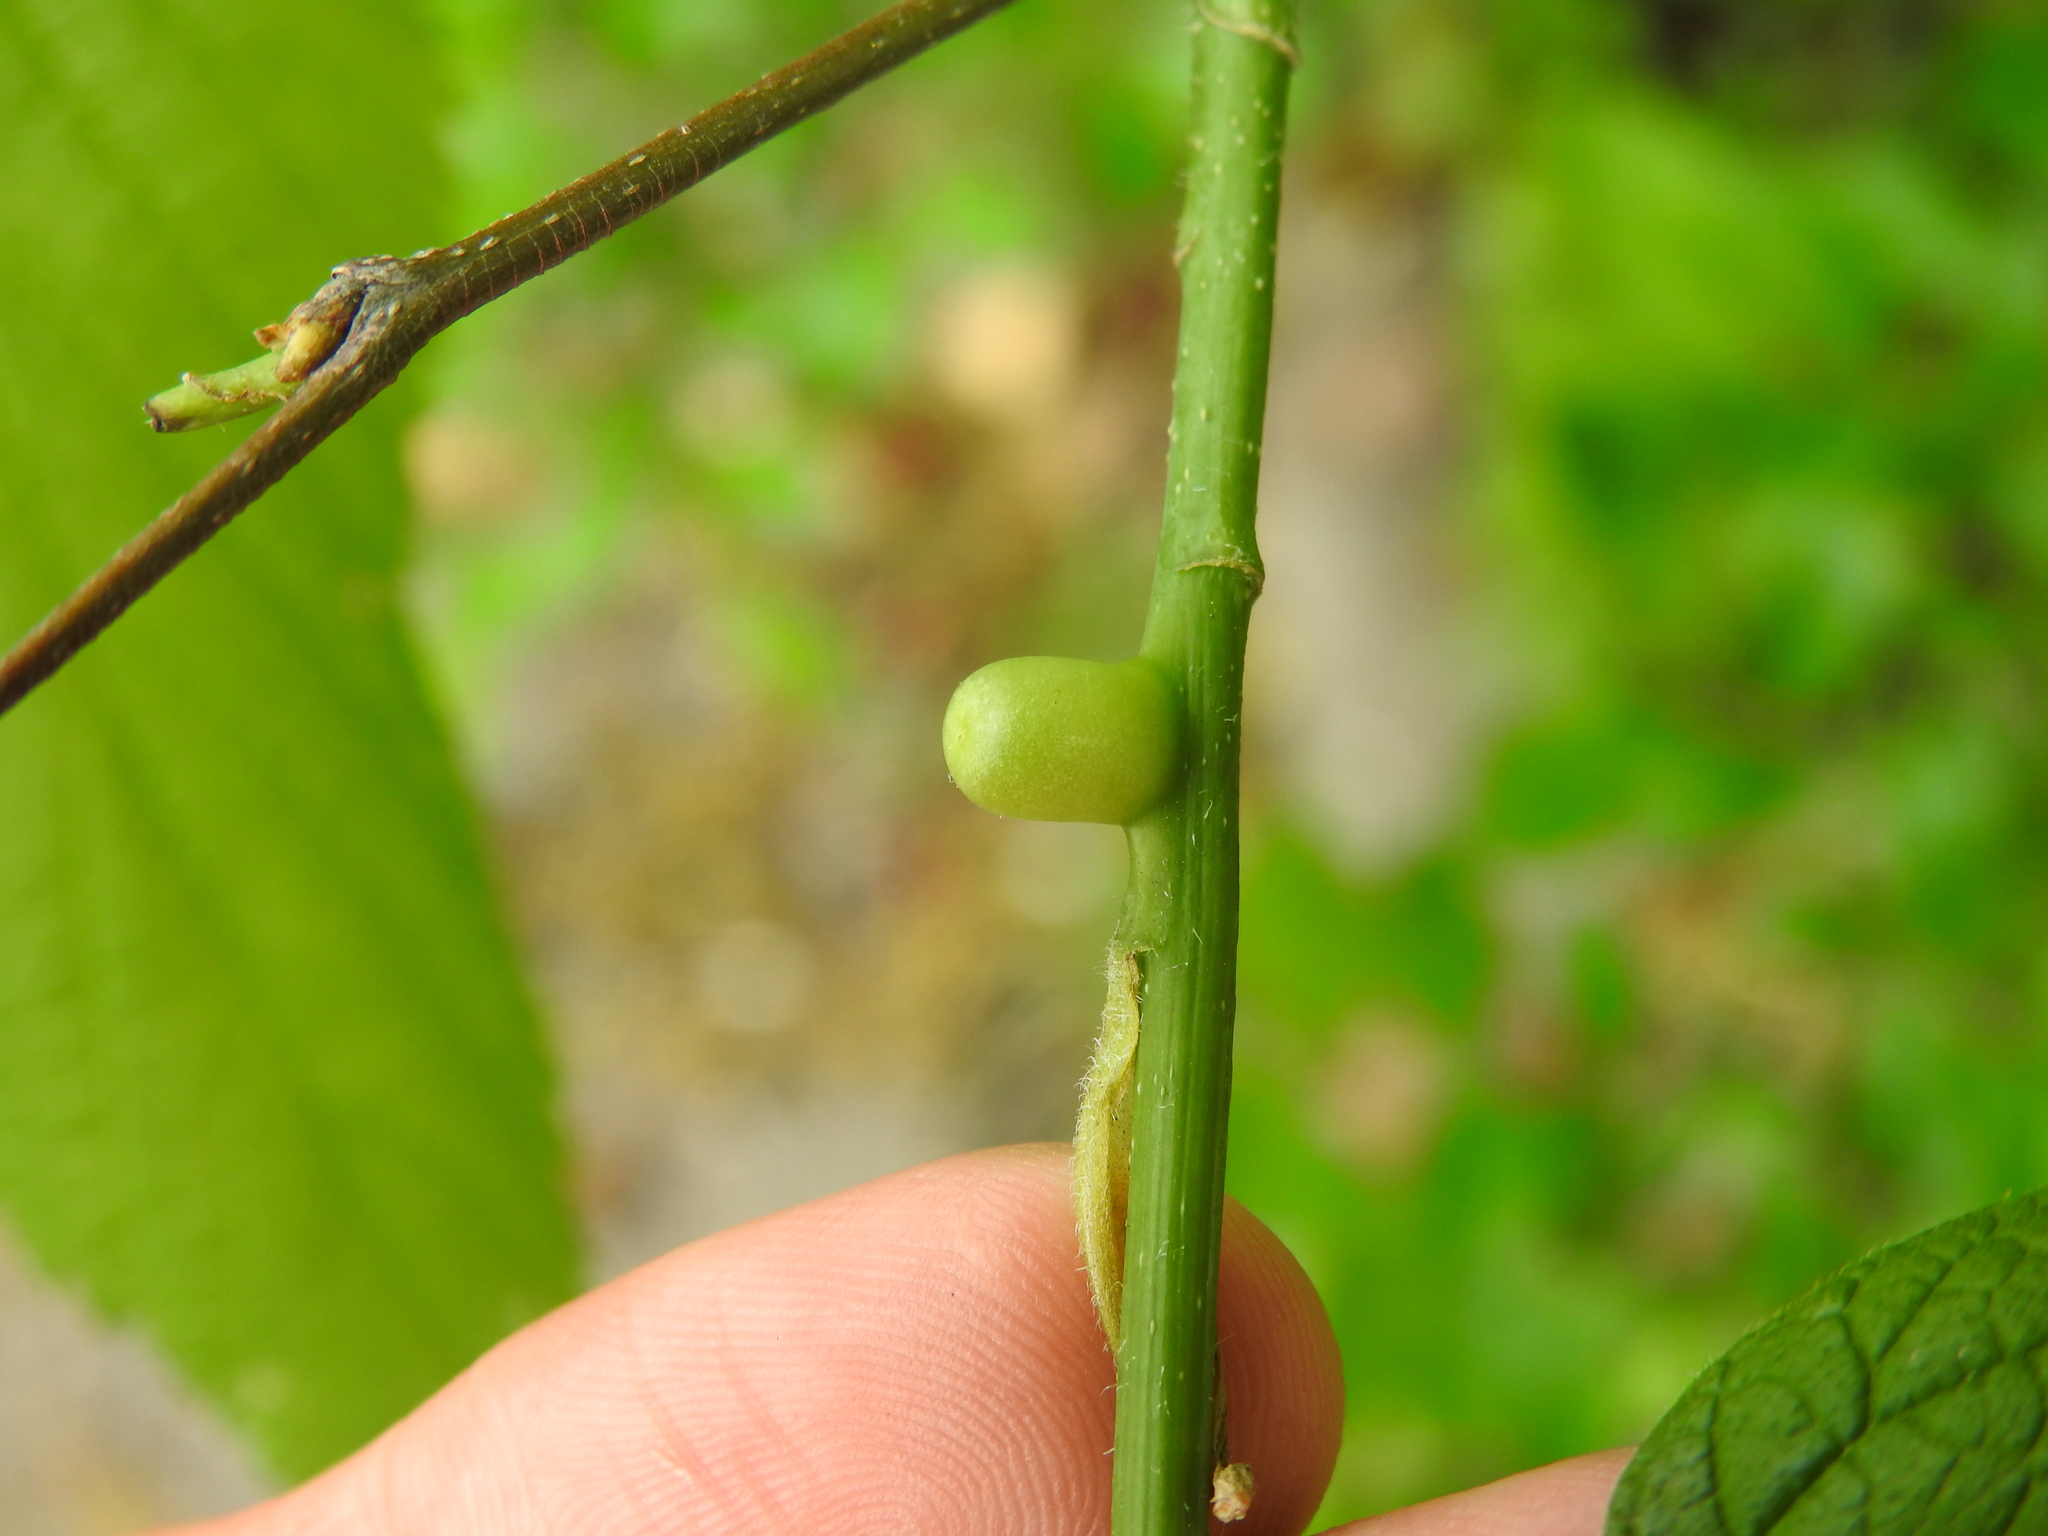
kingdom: Animalia
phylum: Arthropoda
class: Insecta
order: Diptera
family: Cecidomyiidae
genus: Celticecis
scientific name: Celticecis expulsa
